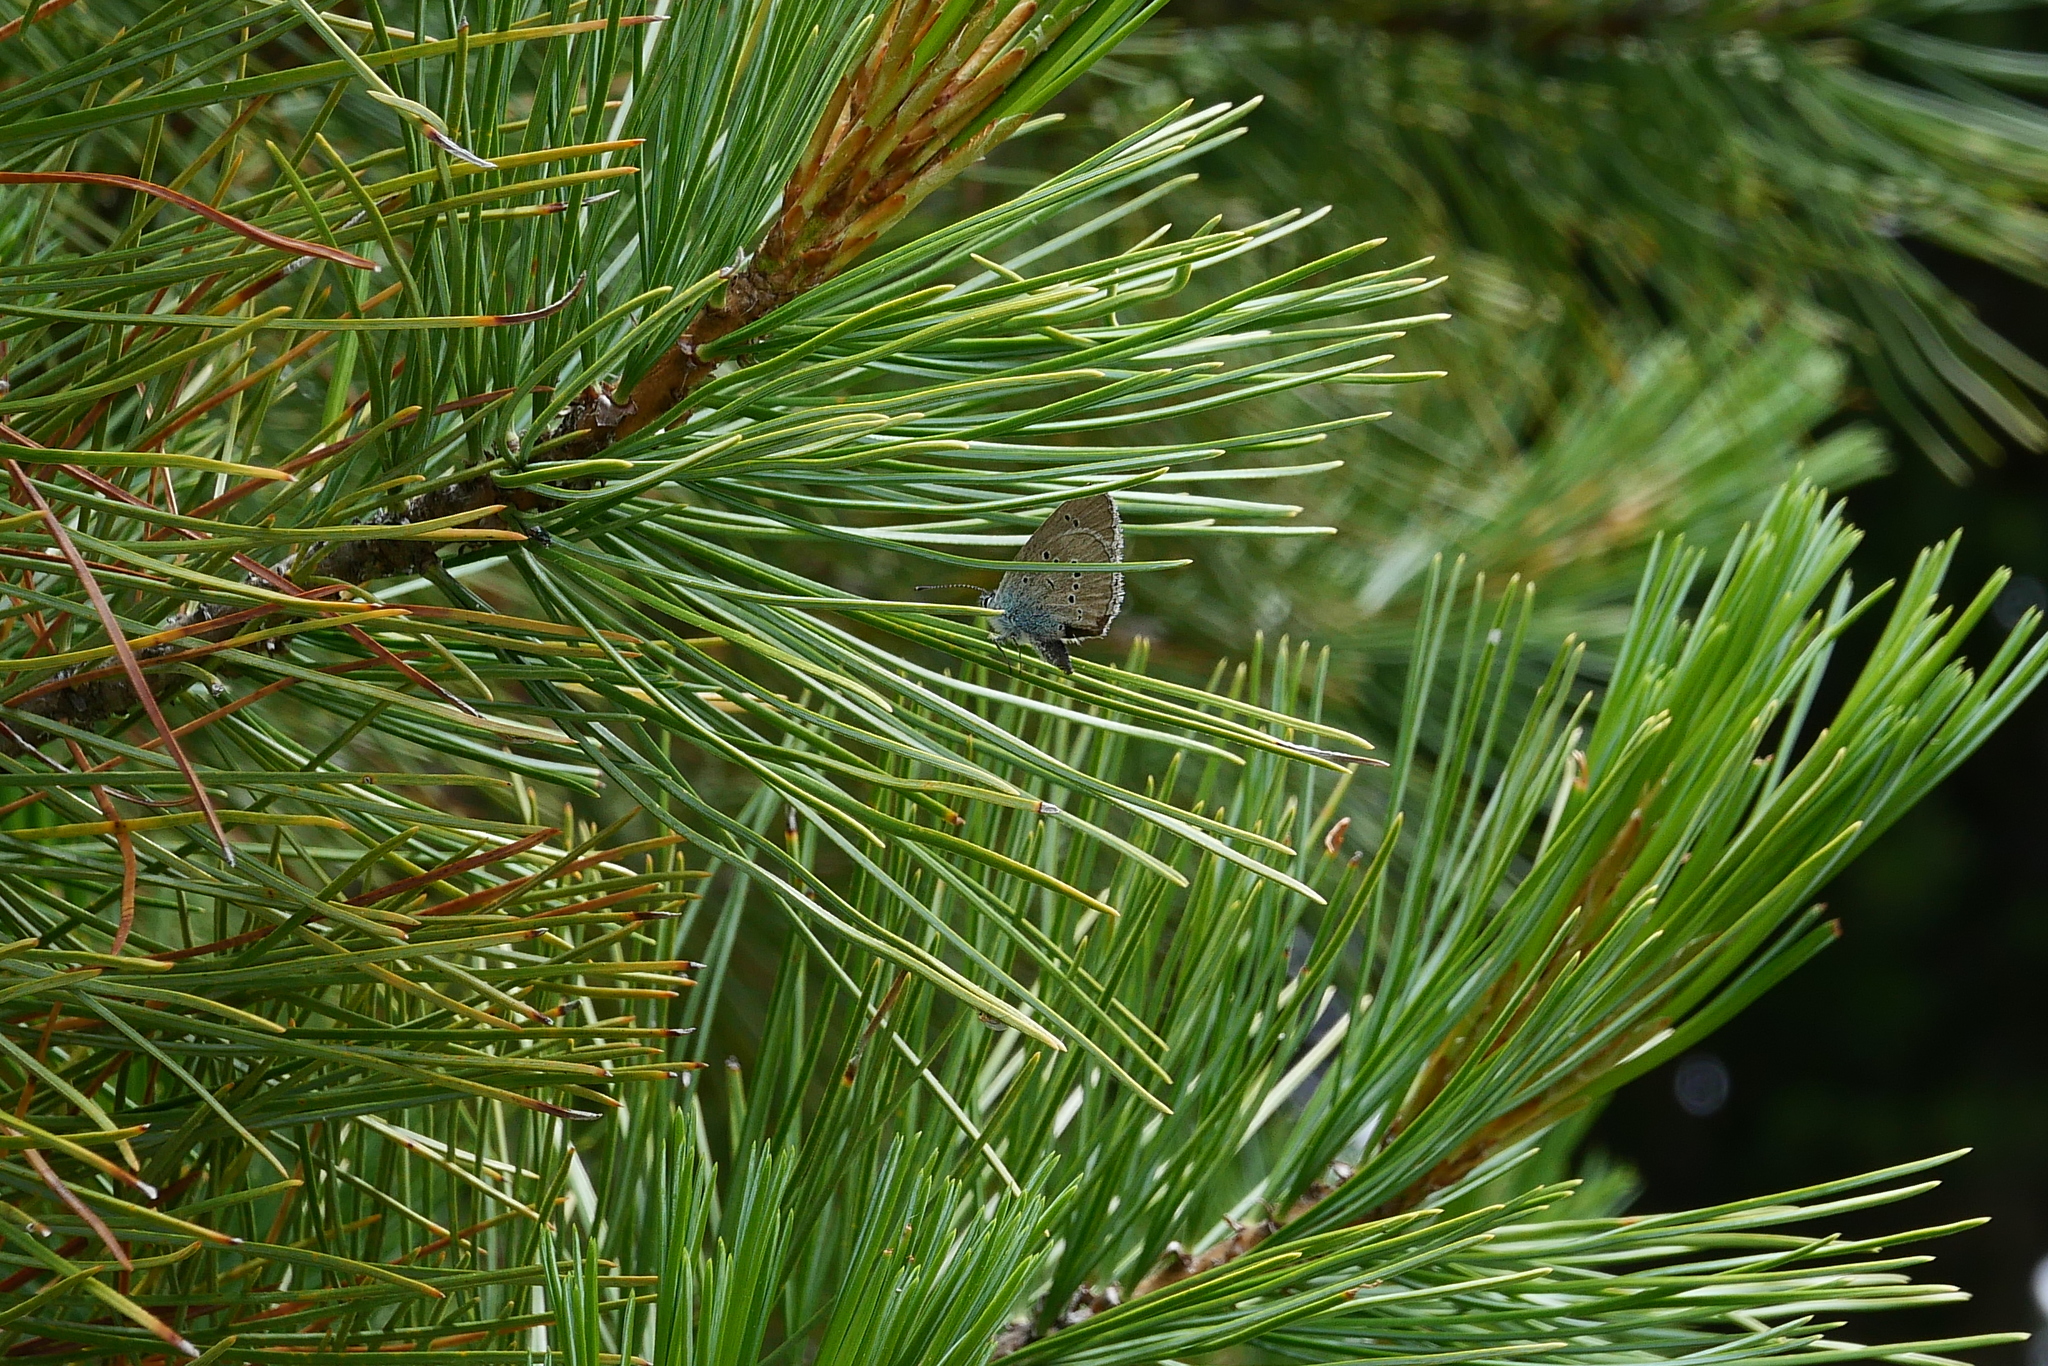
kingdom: Animalia
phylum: Arthropoda
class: Insecta
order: Lepidoptera
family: Lycaenidae
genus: Cyaniris
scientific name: Cyaniris semiargus
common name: Mazarine blue
